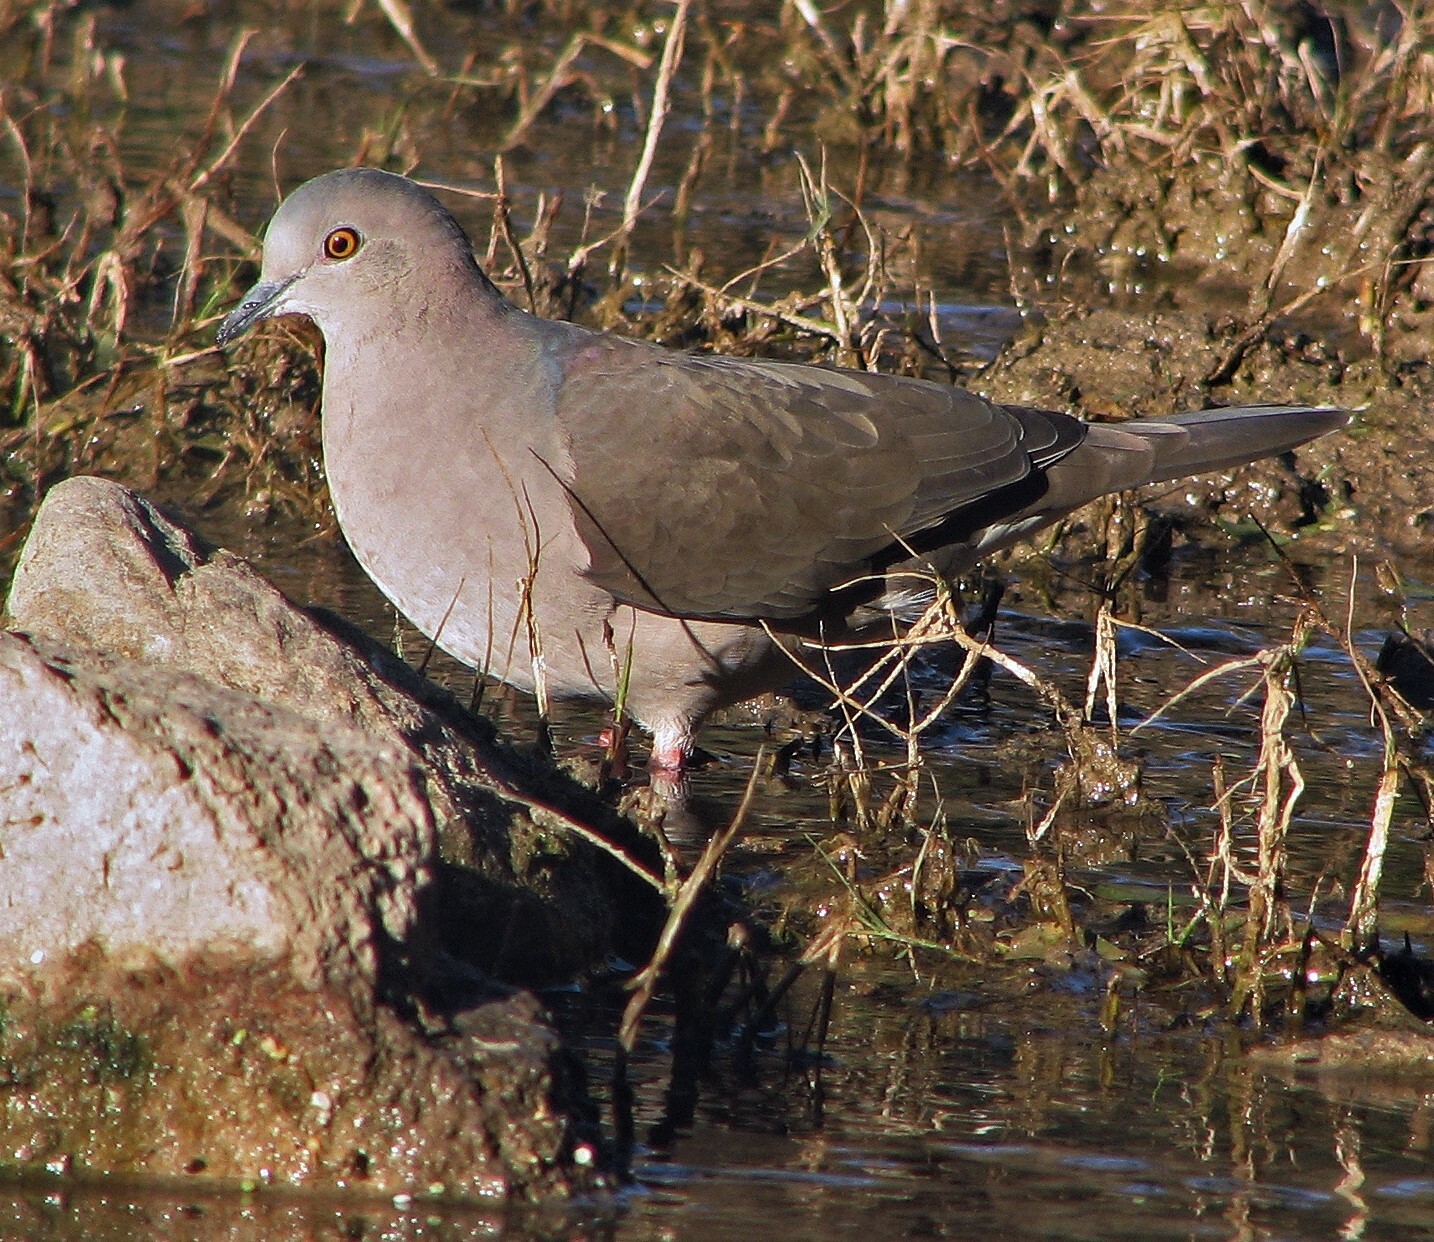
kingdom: Animalia
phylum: Chordata
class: Aves
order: Columbiformes
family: Columbidae
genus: Leptotila
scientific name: Leptotila verreauxi
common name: White-tipped dove
